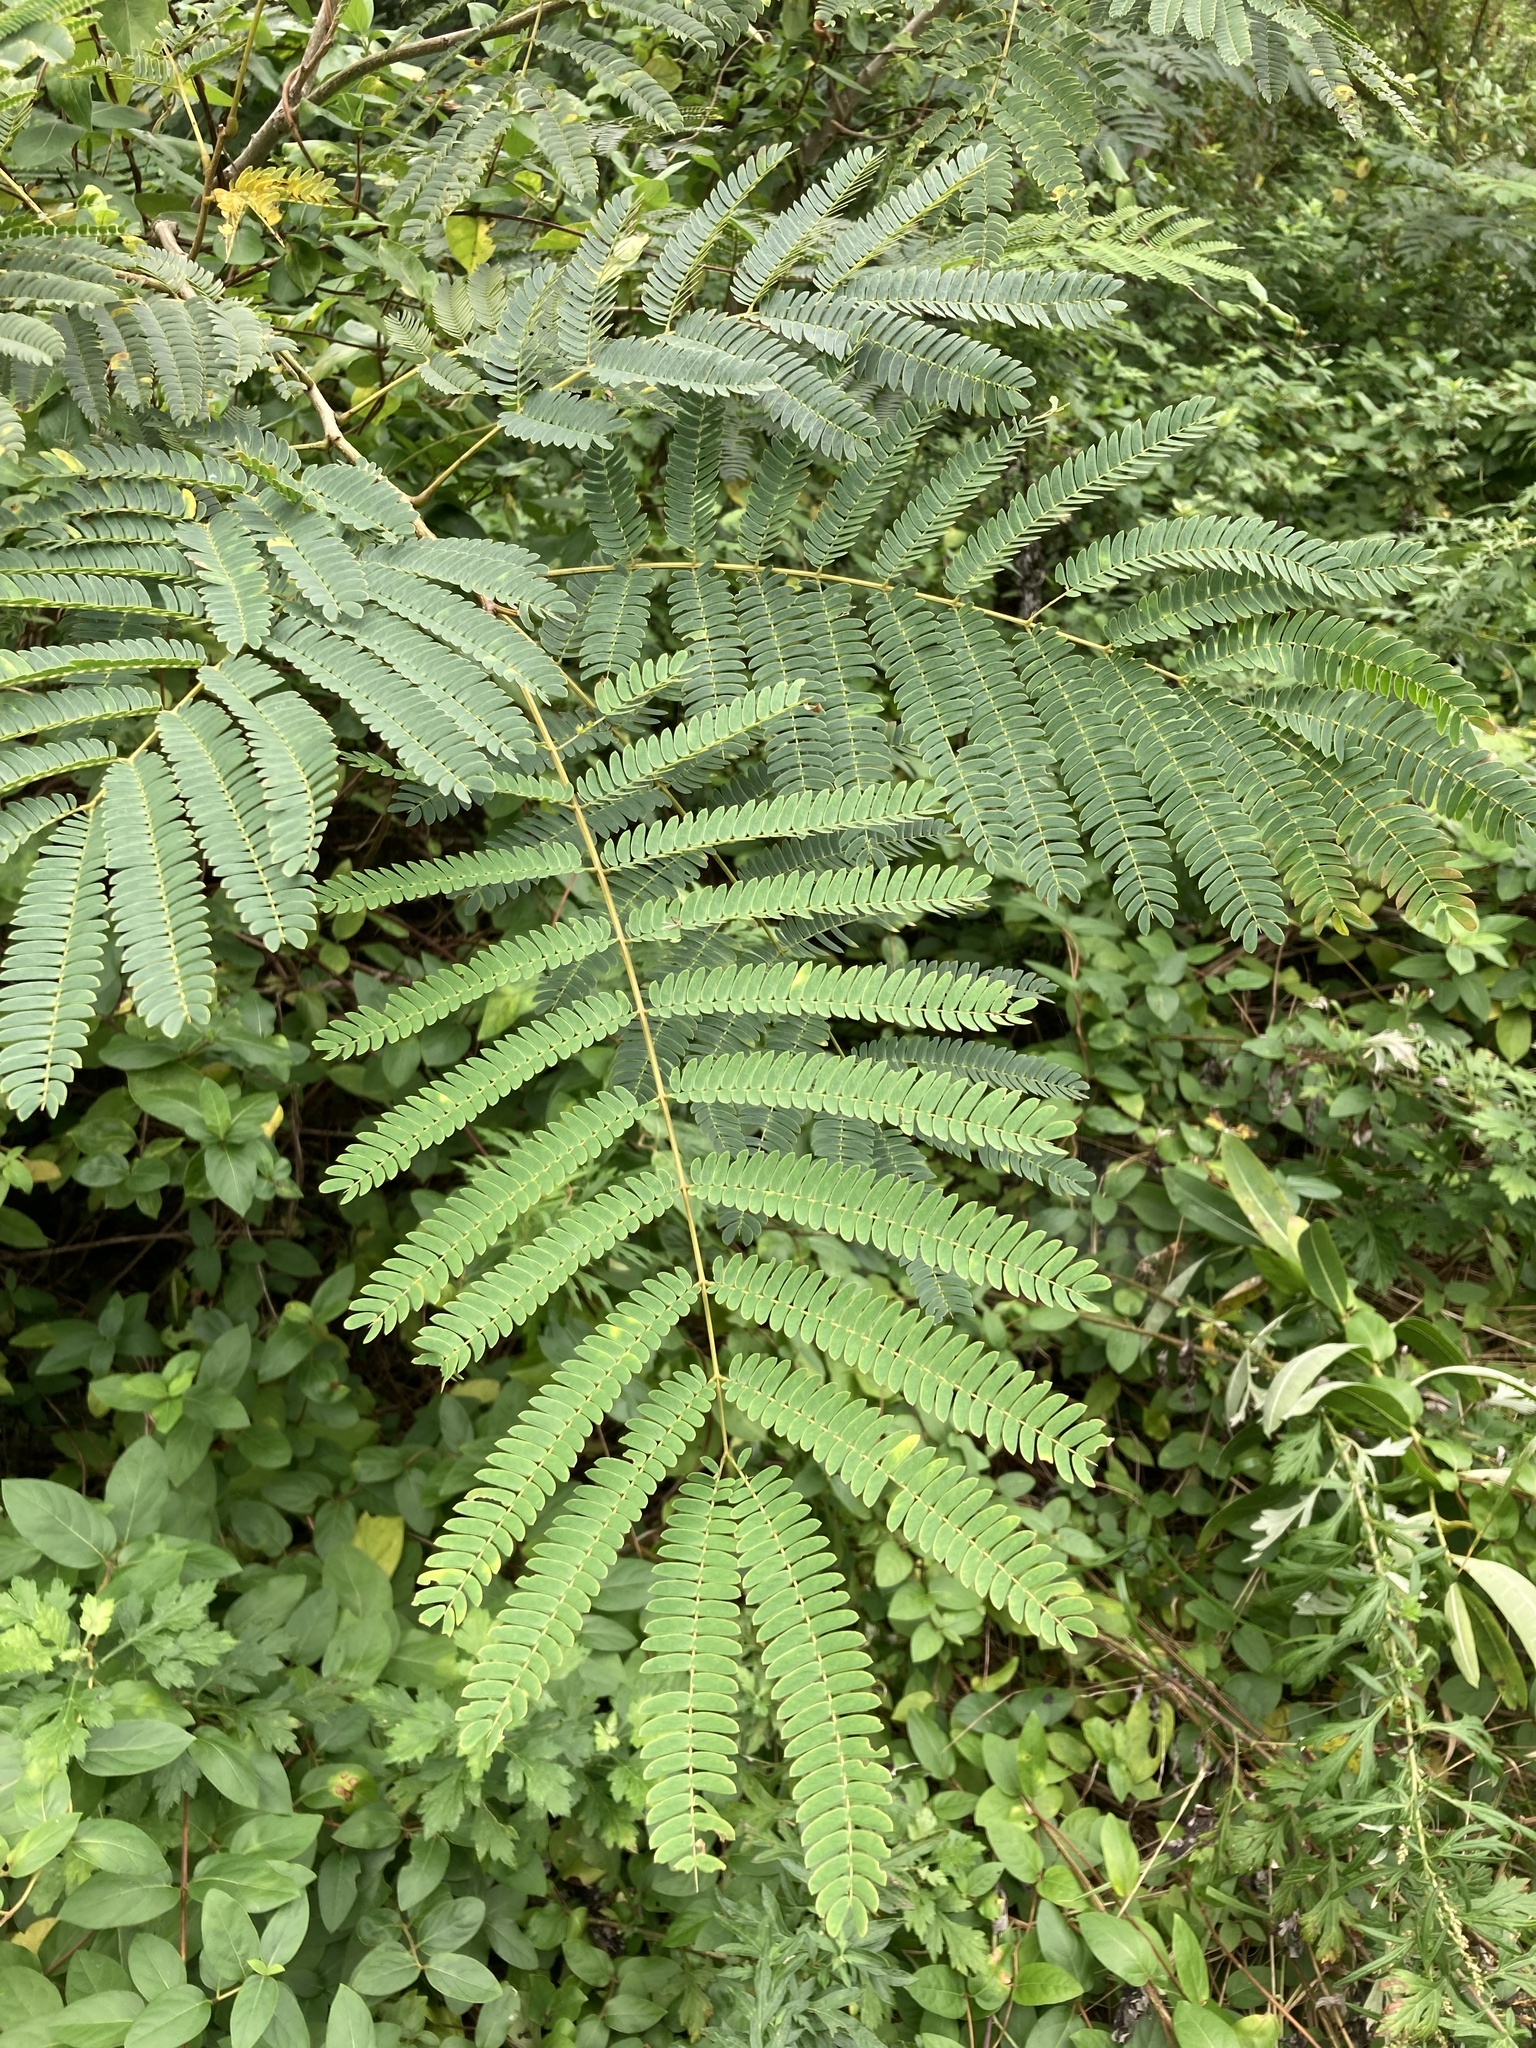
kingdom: Plantae
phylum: Tracheophyta
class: Magnoliopsida
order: Fabales
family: Fabaceae
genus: Albizia
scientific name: Albizia julibrissin
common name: Silktree
